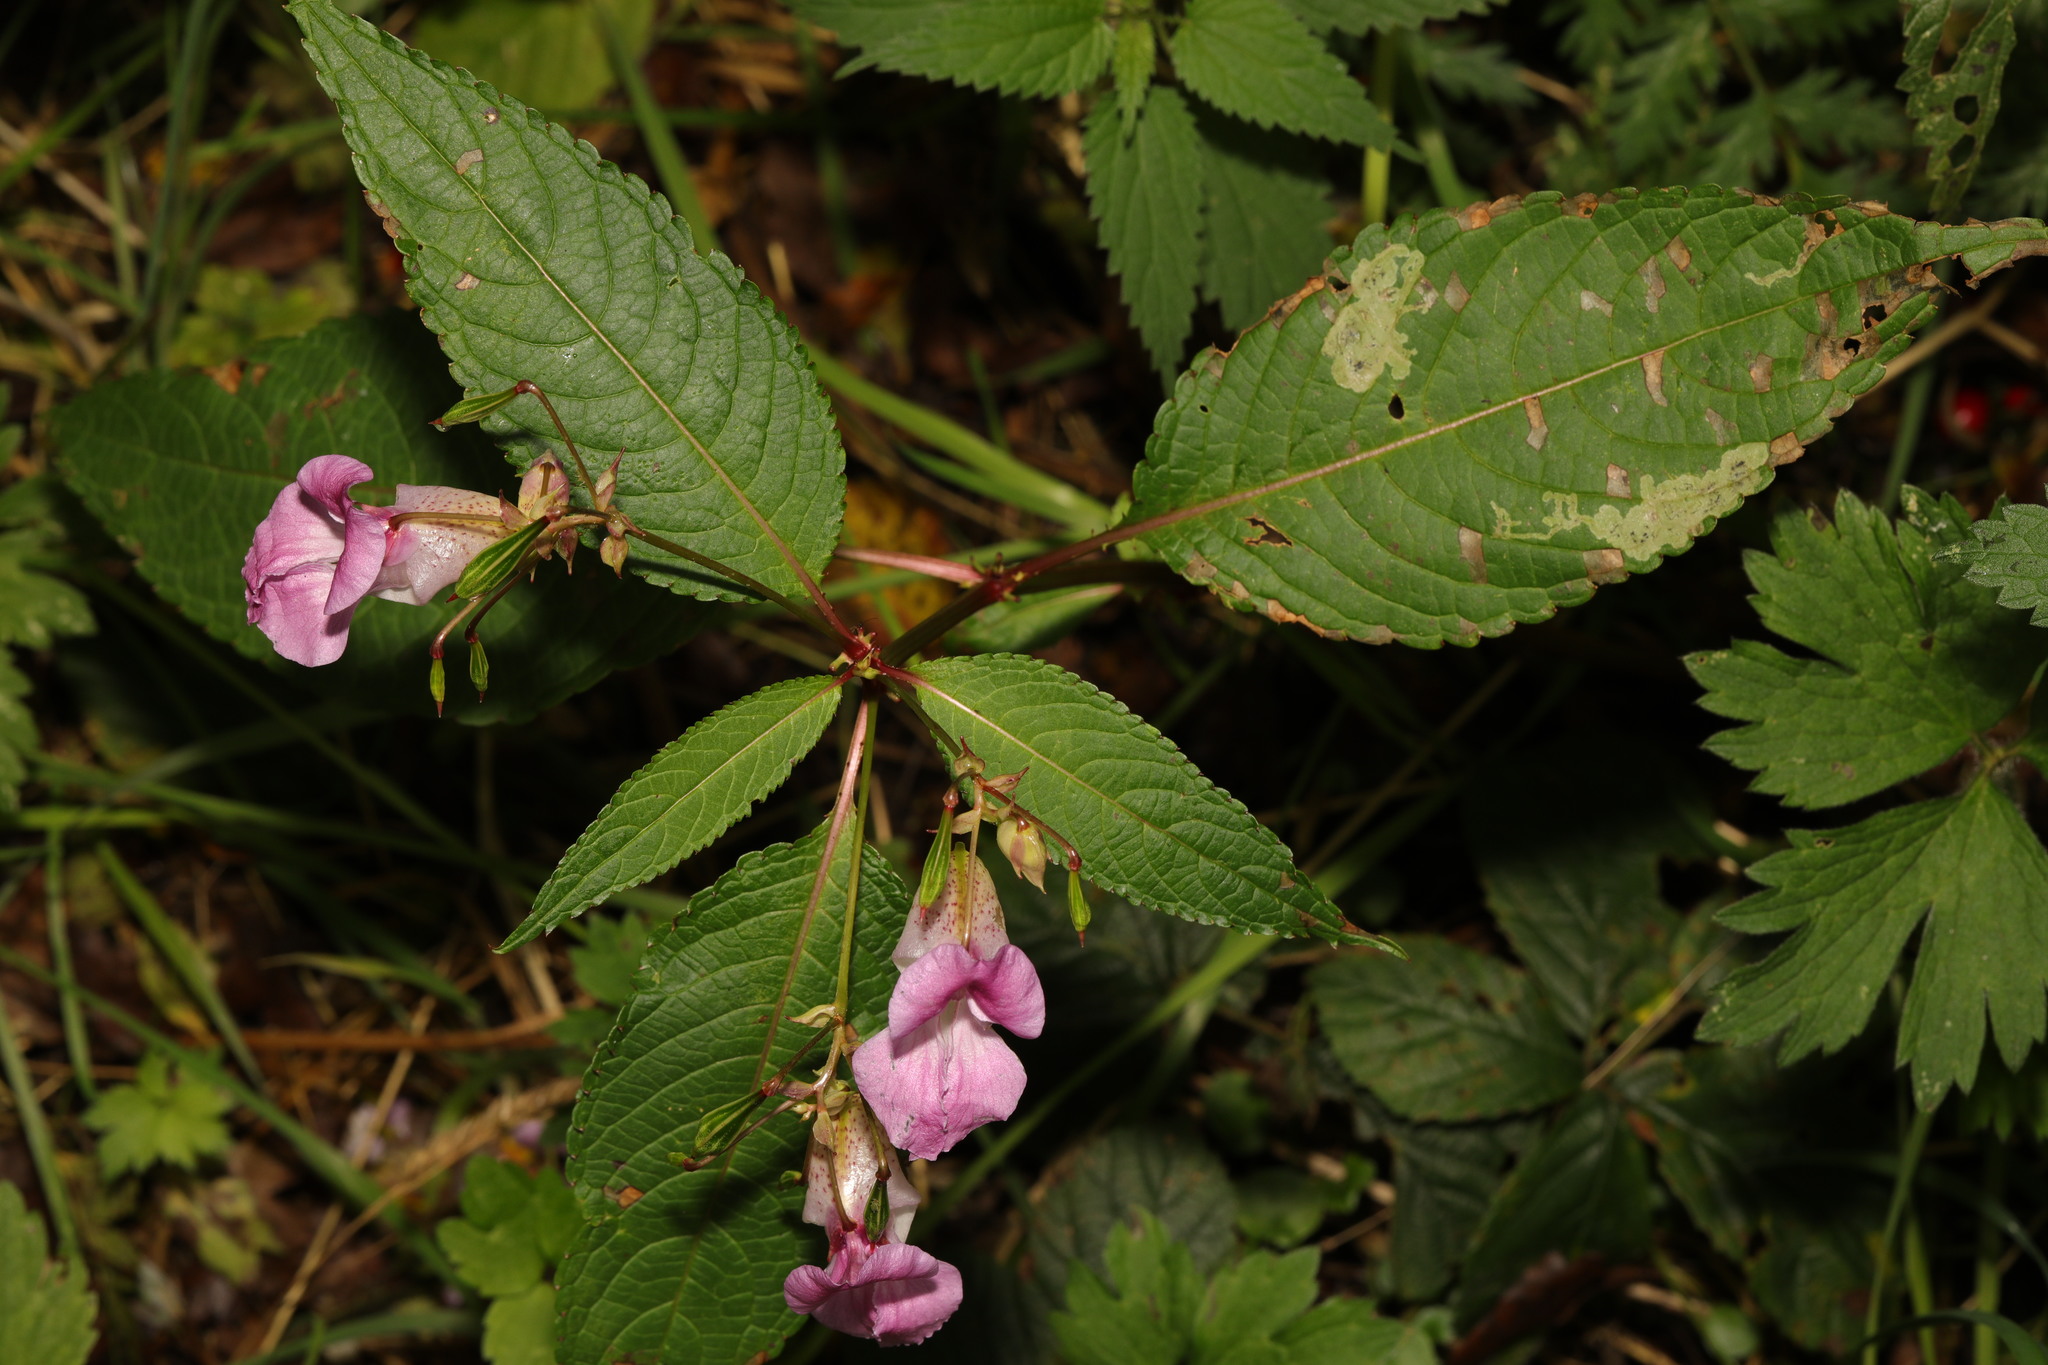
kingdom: Plantae
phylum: Tracheophyta
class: Magnoliopsida
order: Ericales
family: Balsaminaceae
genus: Impatiens
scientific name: Impatiens glandulifera
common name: Himalayan balsam
